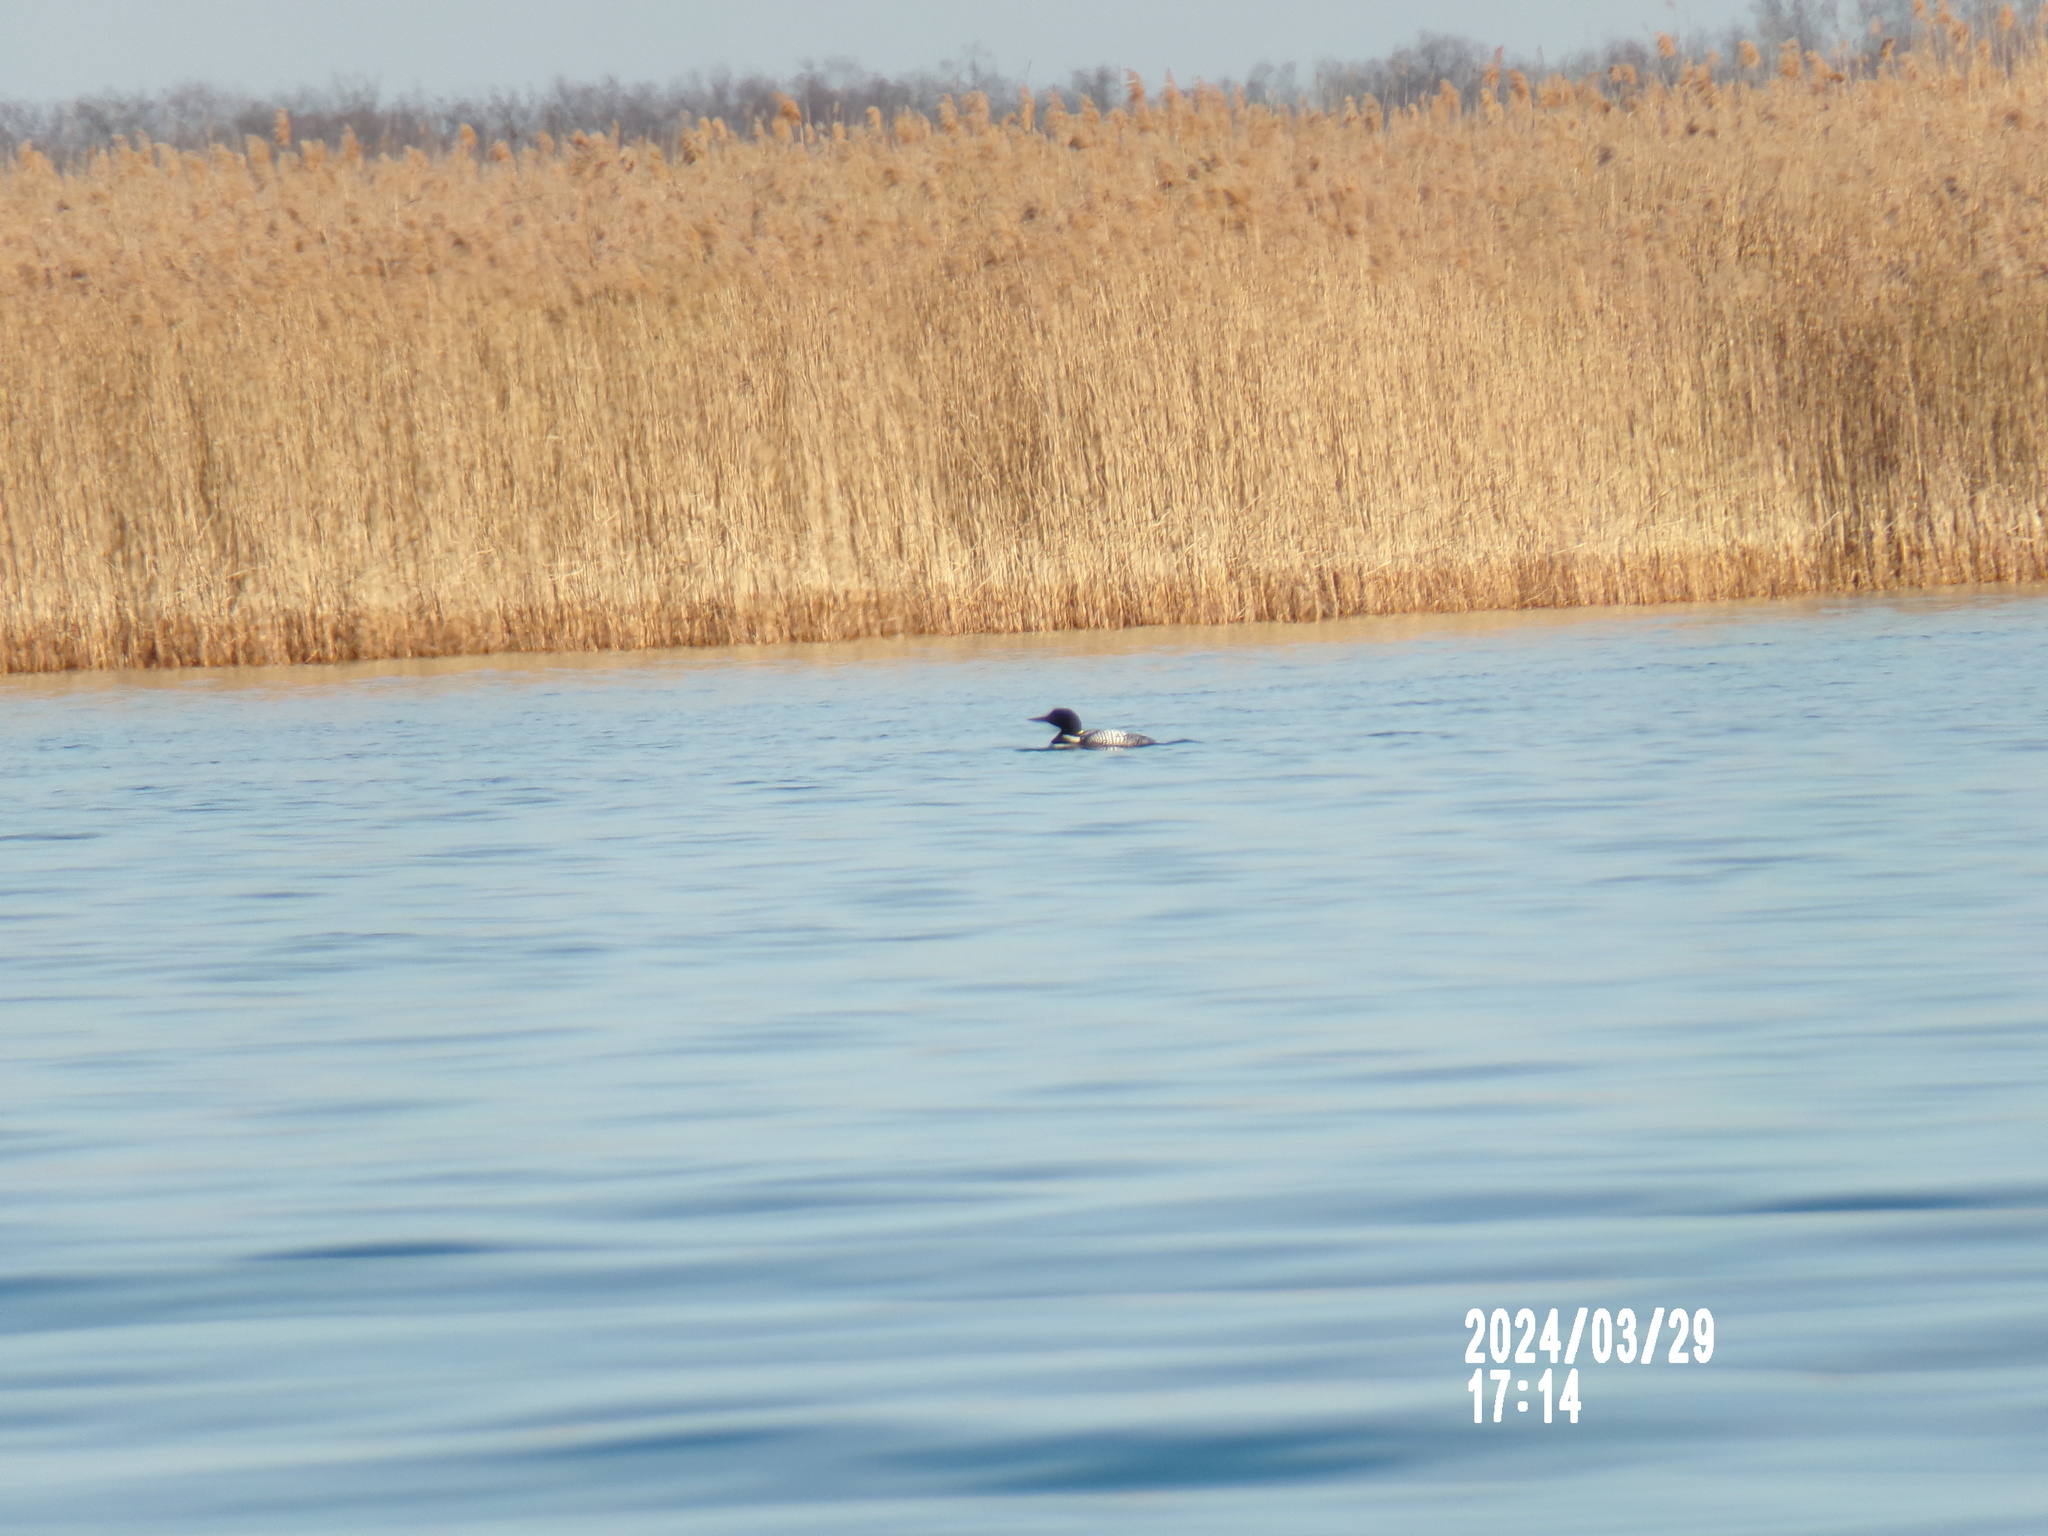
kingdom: Animalia
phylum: Chordata
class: Aves
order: Gaviiformes
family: Gaviidae
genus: Gavia
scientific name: Gavia immer
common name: Common loon
